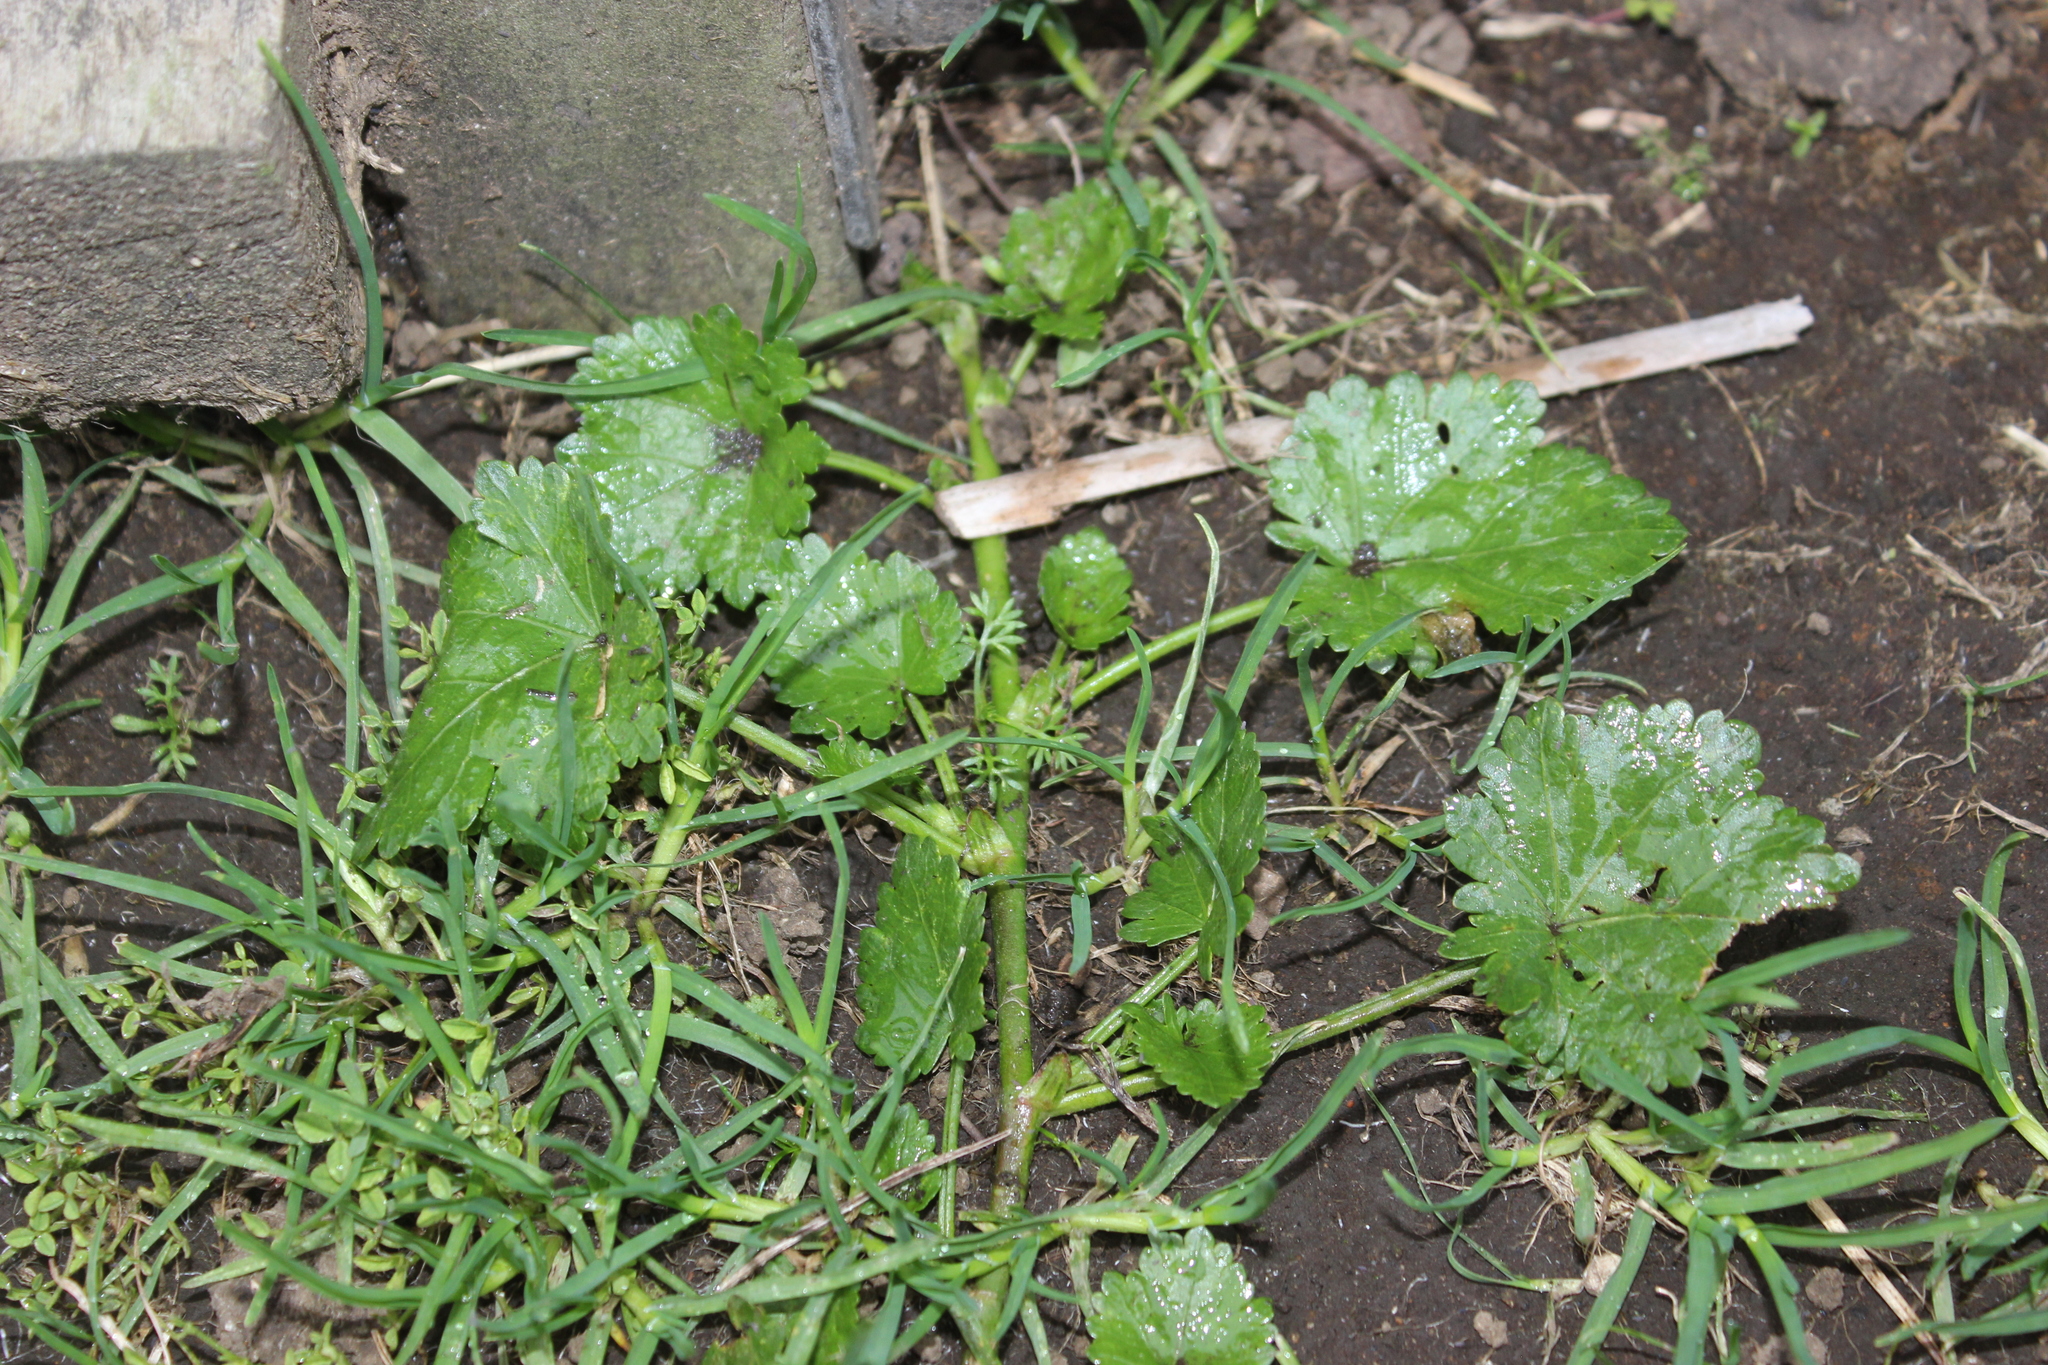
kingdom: Plantae
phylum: Tracheophyta
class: Magnoliopsida
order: Malvales
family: Malvaceae
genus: Modiola
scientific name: Modiola caroliniana
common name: Carolina bristlemallow
